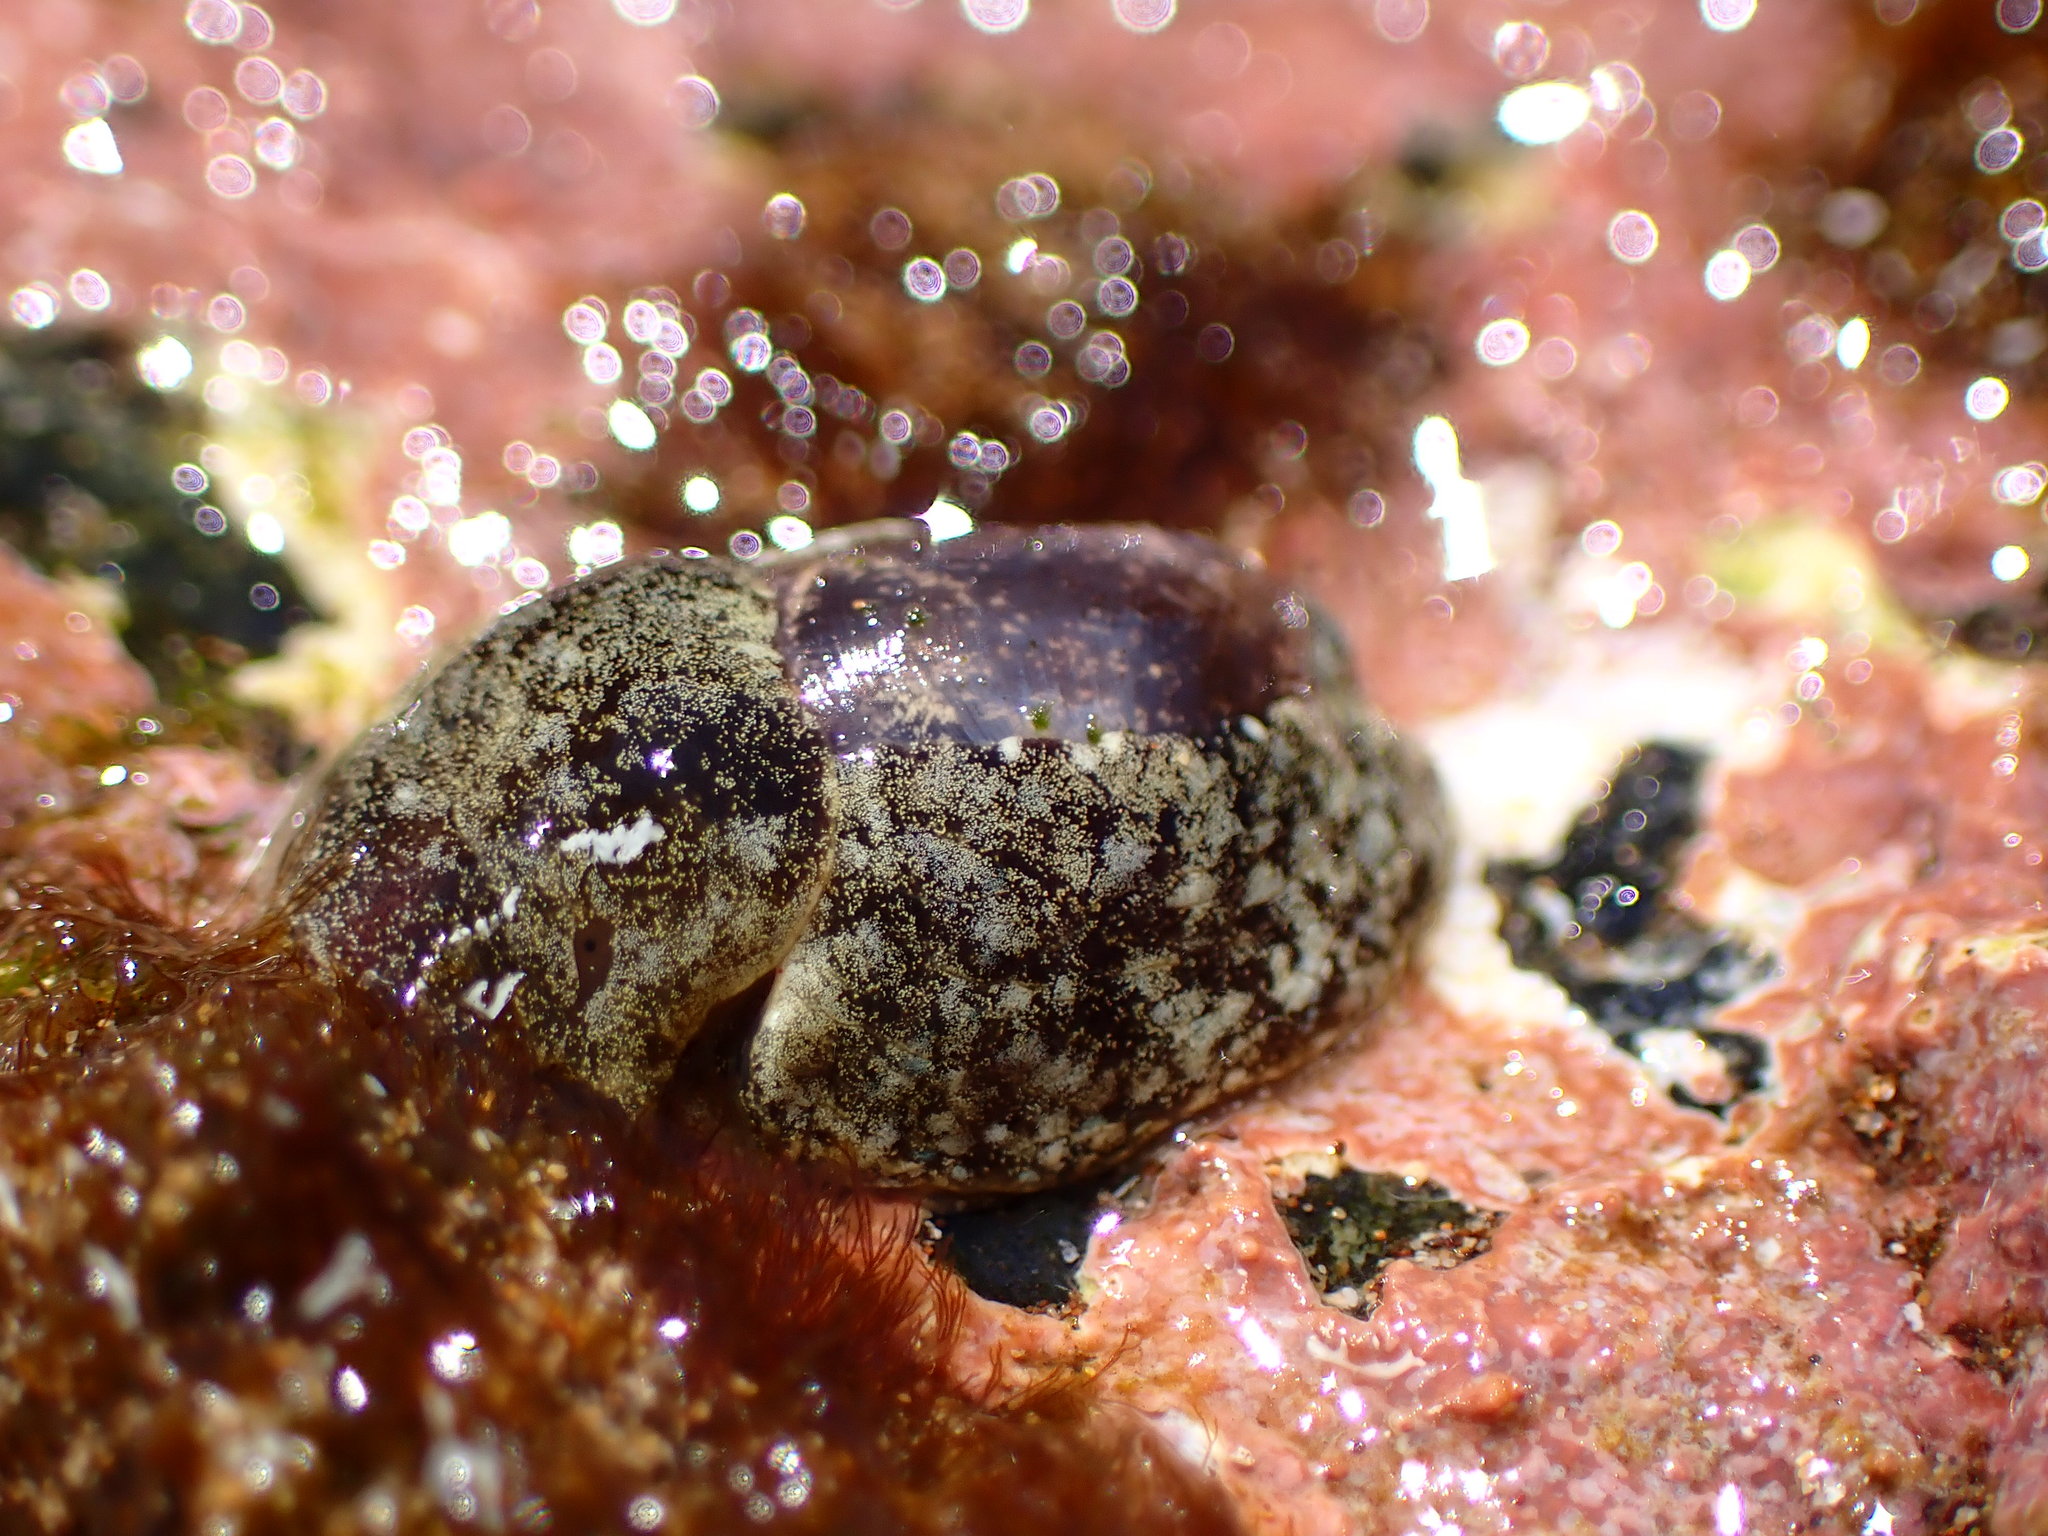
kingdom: Animalia
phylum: Mollusca
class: Gastropoda
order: Cephalaspidea
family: Haminoeidae
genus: Smaragdinella
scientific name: Smaragdinella calyculata
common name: Emerald bubble
